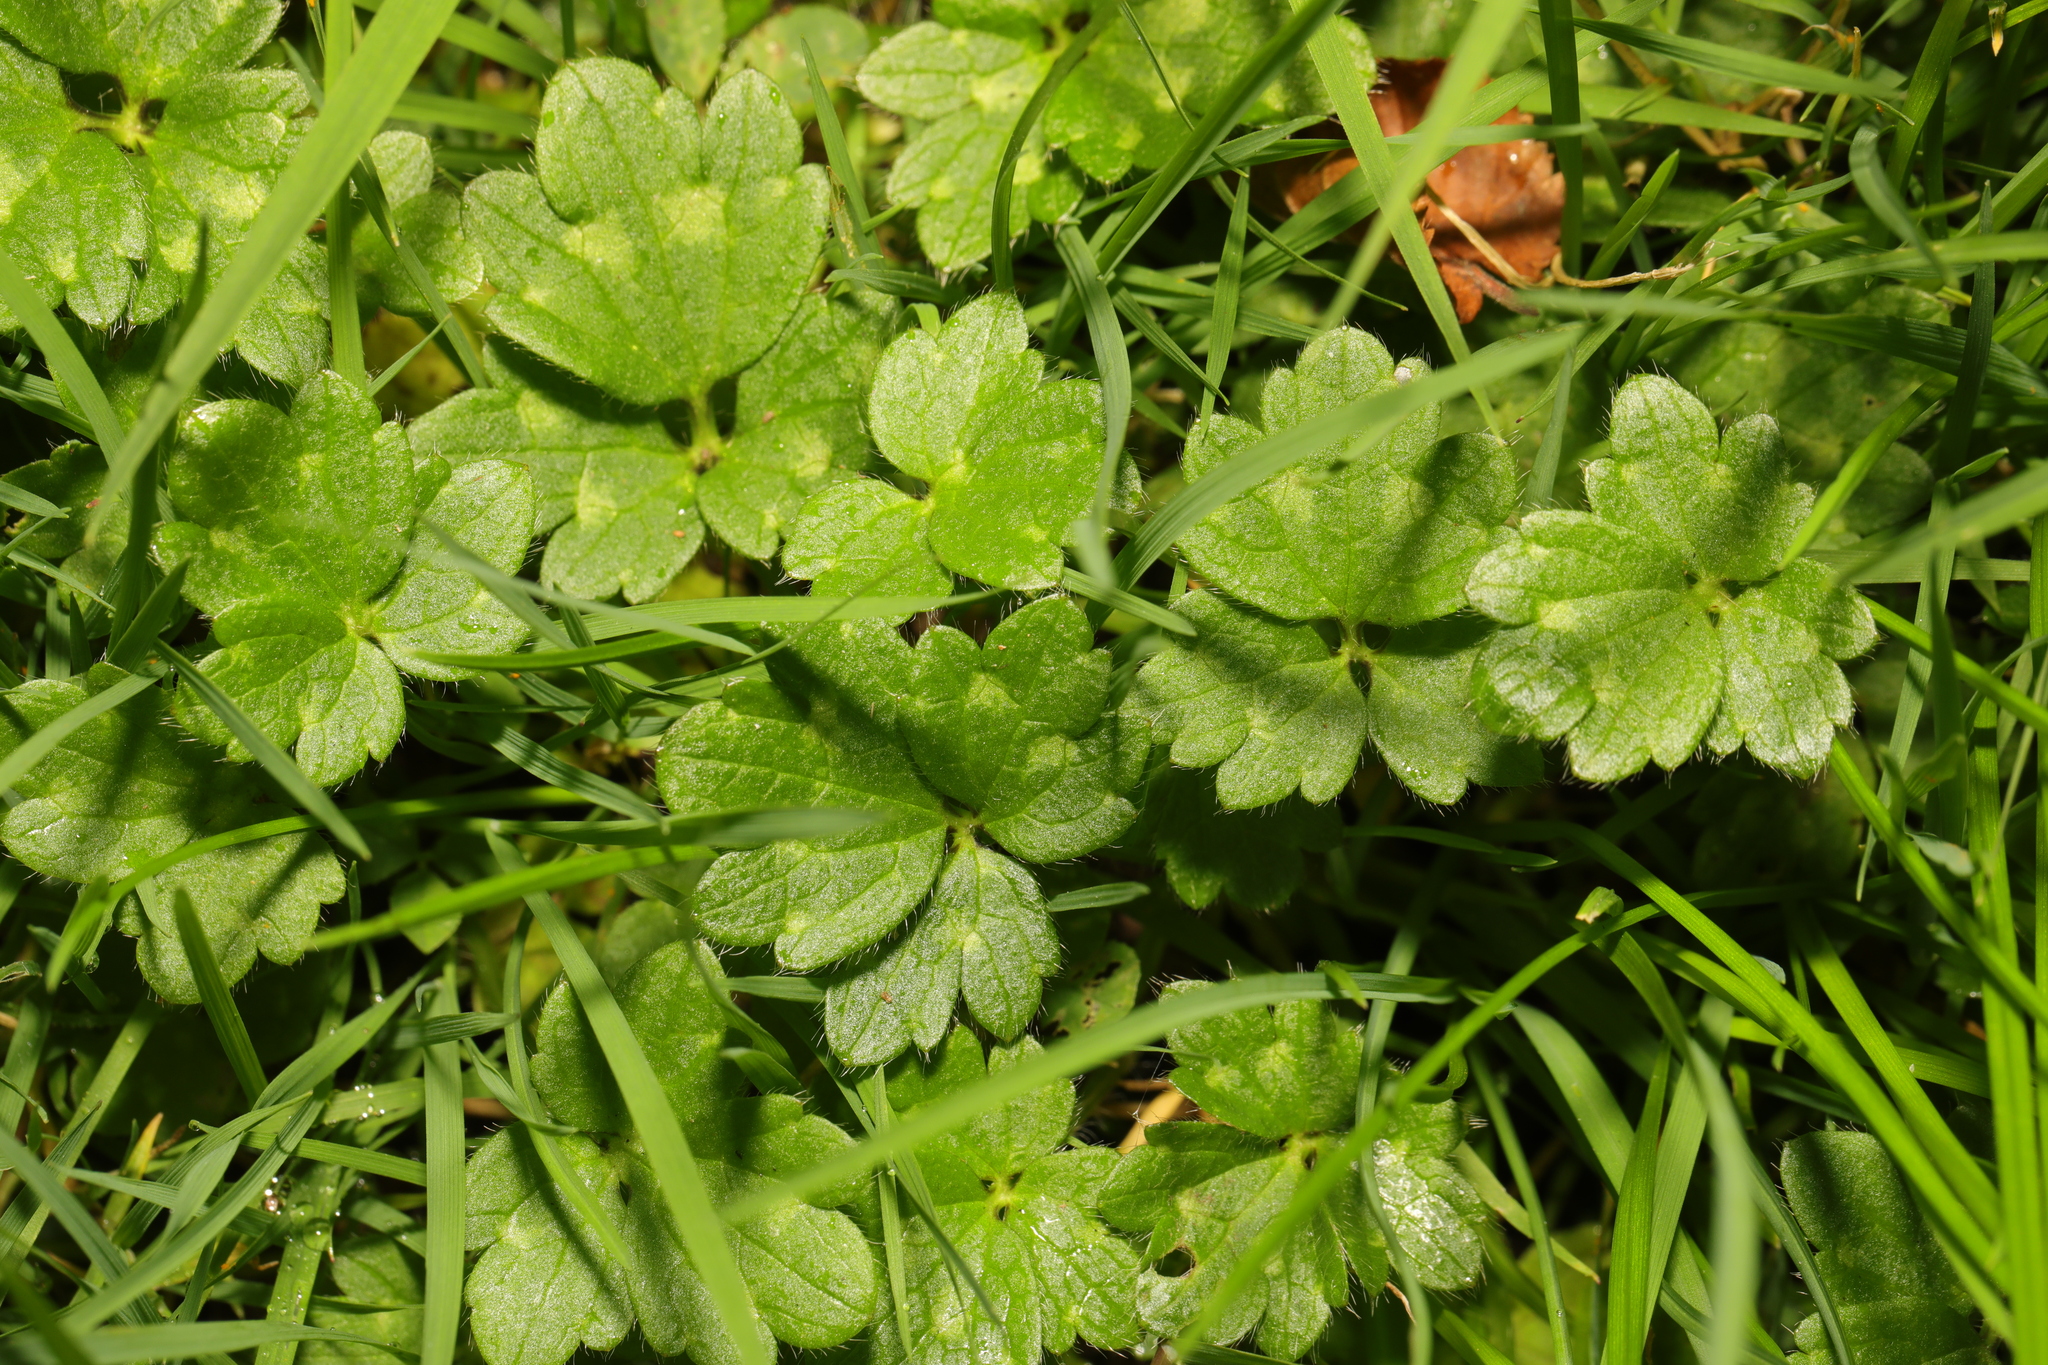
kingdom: Plantae
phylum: Tracheophyta
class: Magnoliopsida
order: Ranunculales
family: Ranunculaceae
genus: Ranunculus
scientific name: Ranunculus repens
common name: Creeping buttercup
